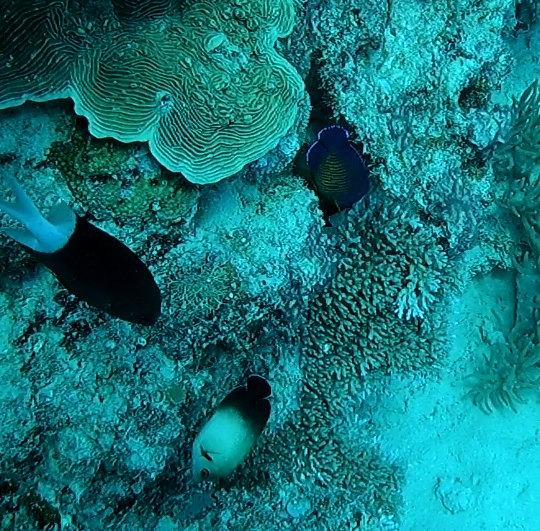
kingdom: Animalia
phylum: Chordata
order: Perciformes
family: Pomacanthidae
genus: Centropyge
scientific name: Centropyge bispinosa
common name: Coral beauty
